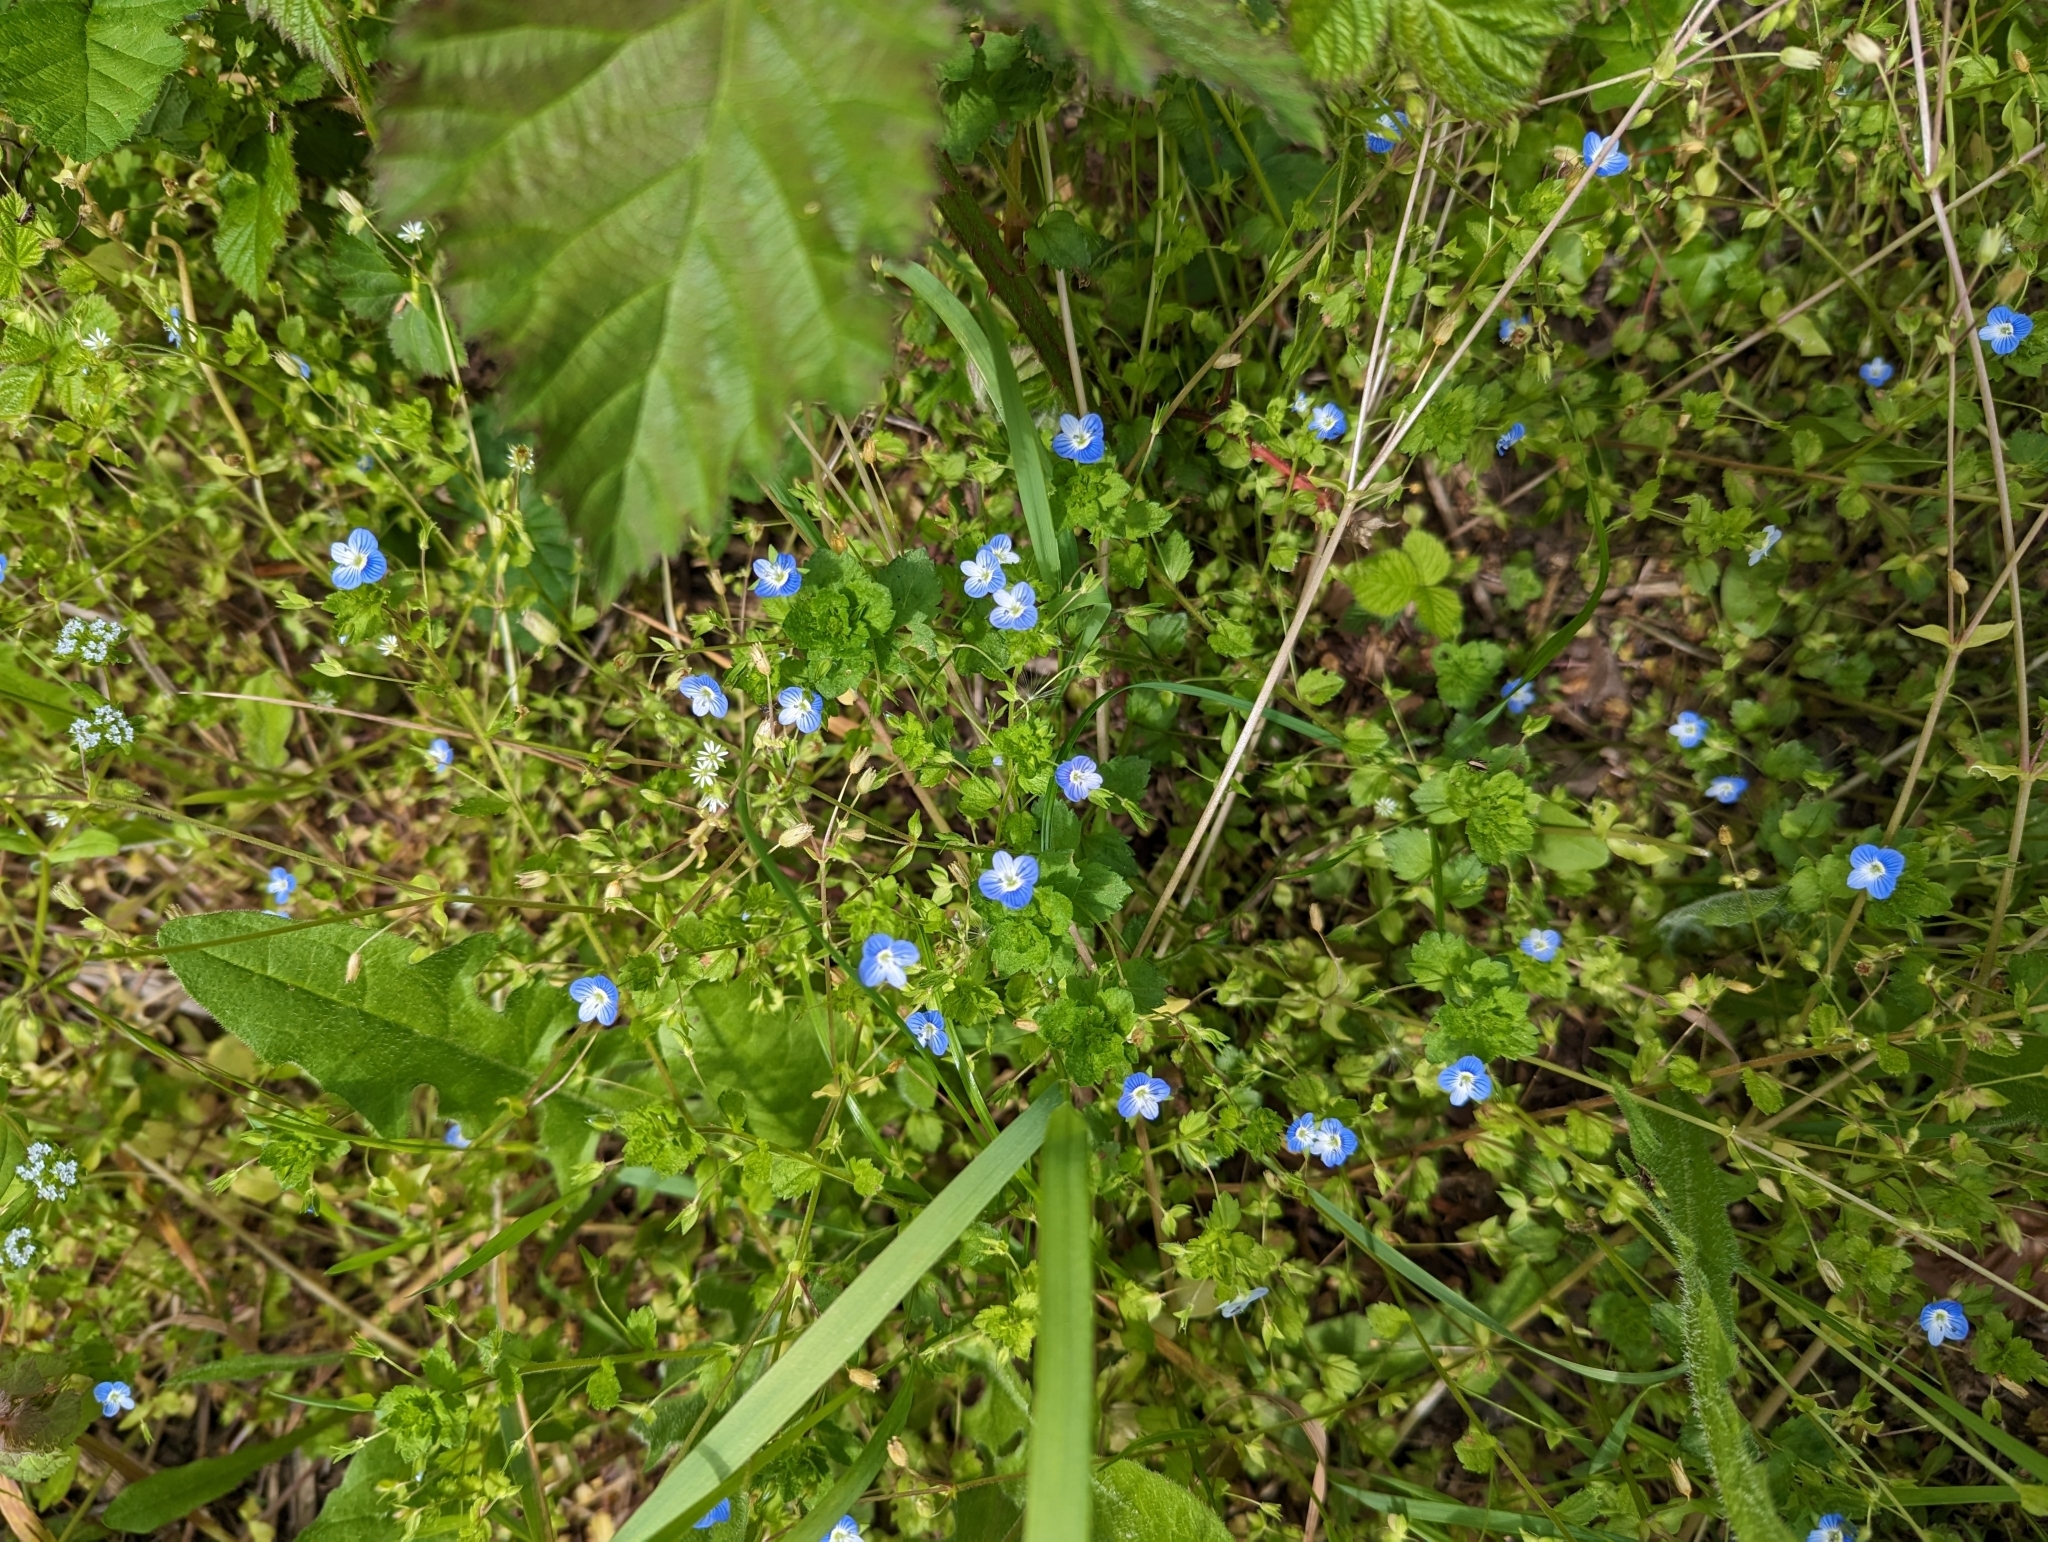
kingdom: Plantae
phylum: Tracheophyta
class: Magnoliopsida
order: Lamiales
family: Plantaginaceae
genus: Veronica
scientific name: Veronica persica
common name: Common field-speedwell
